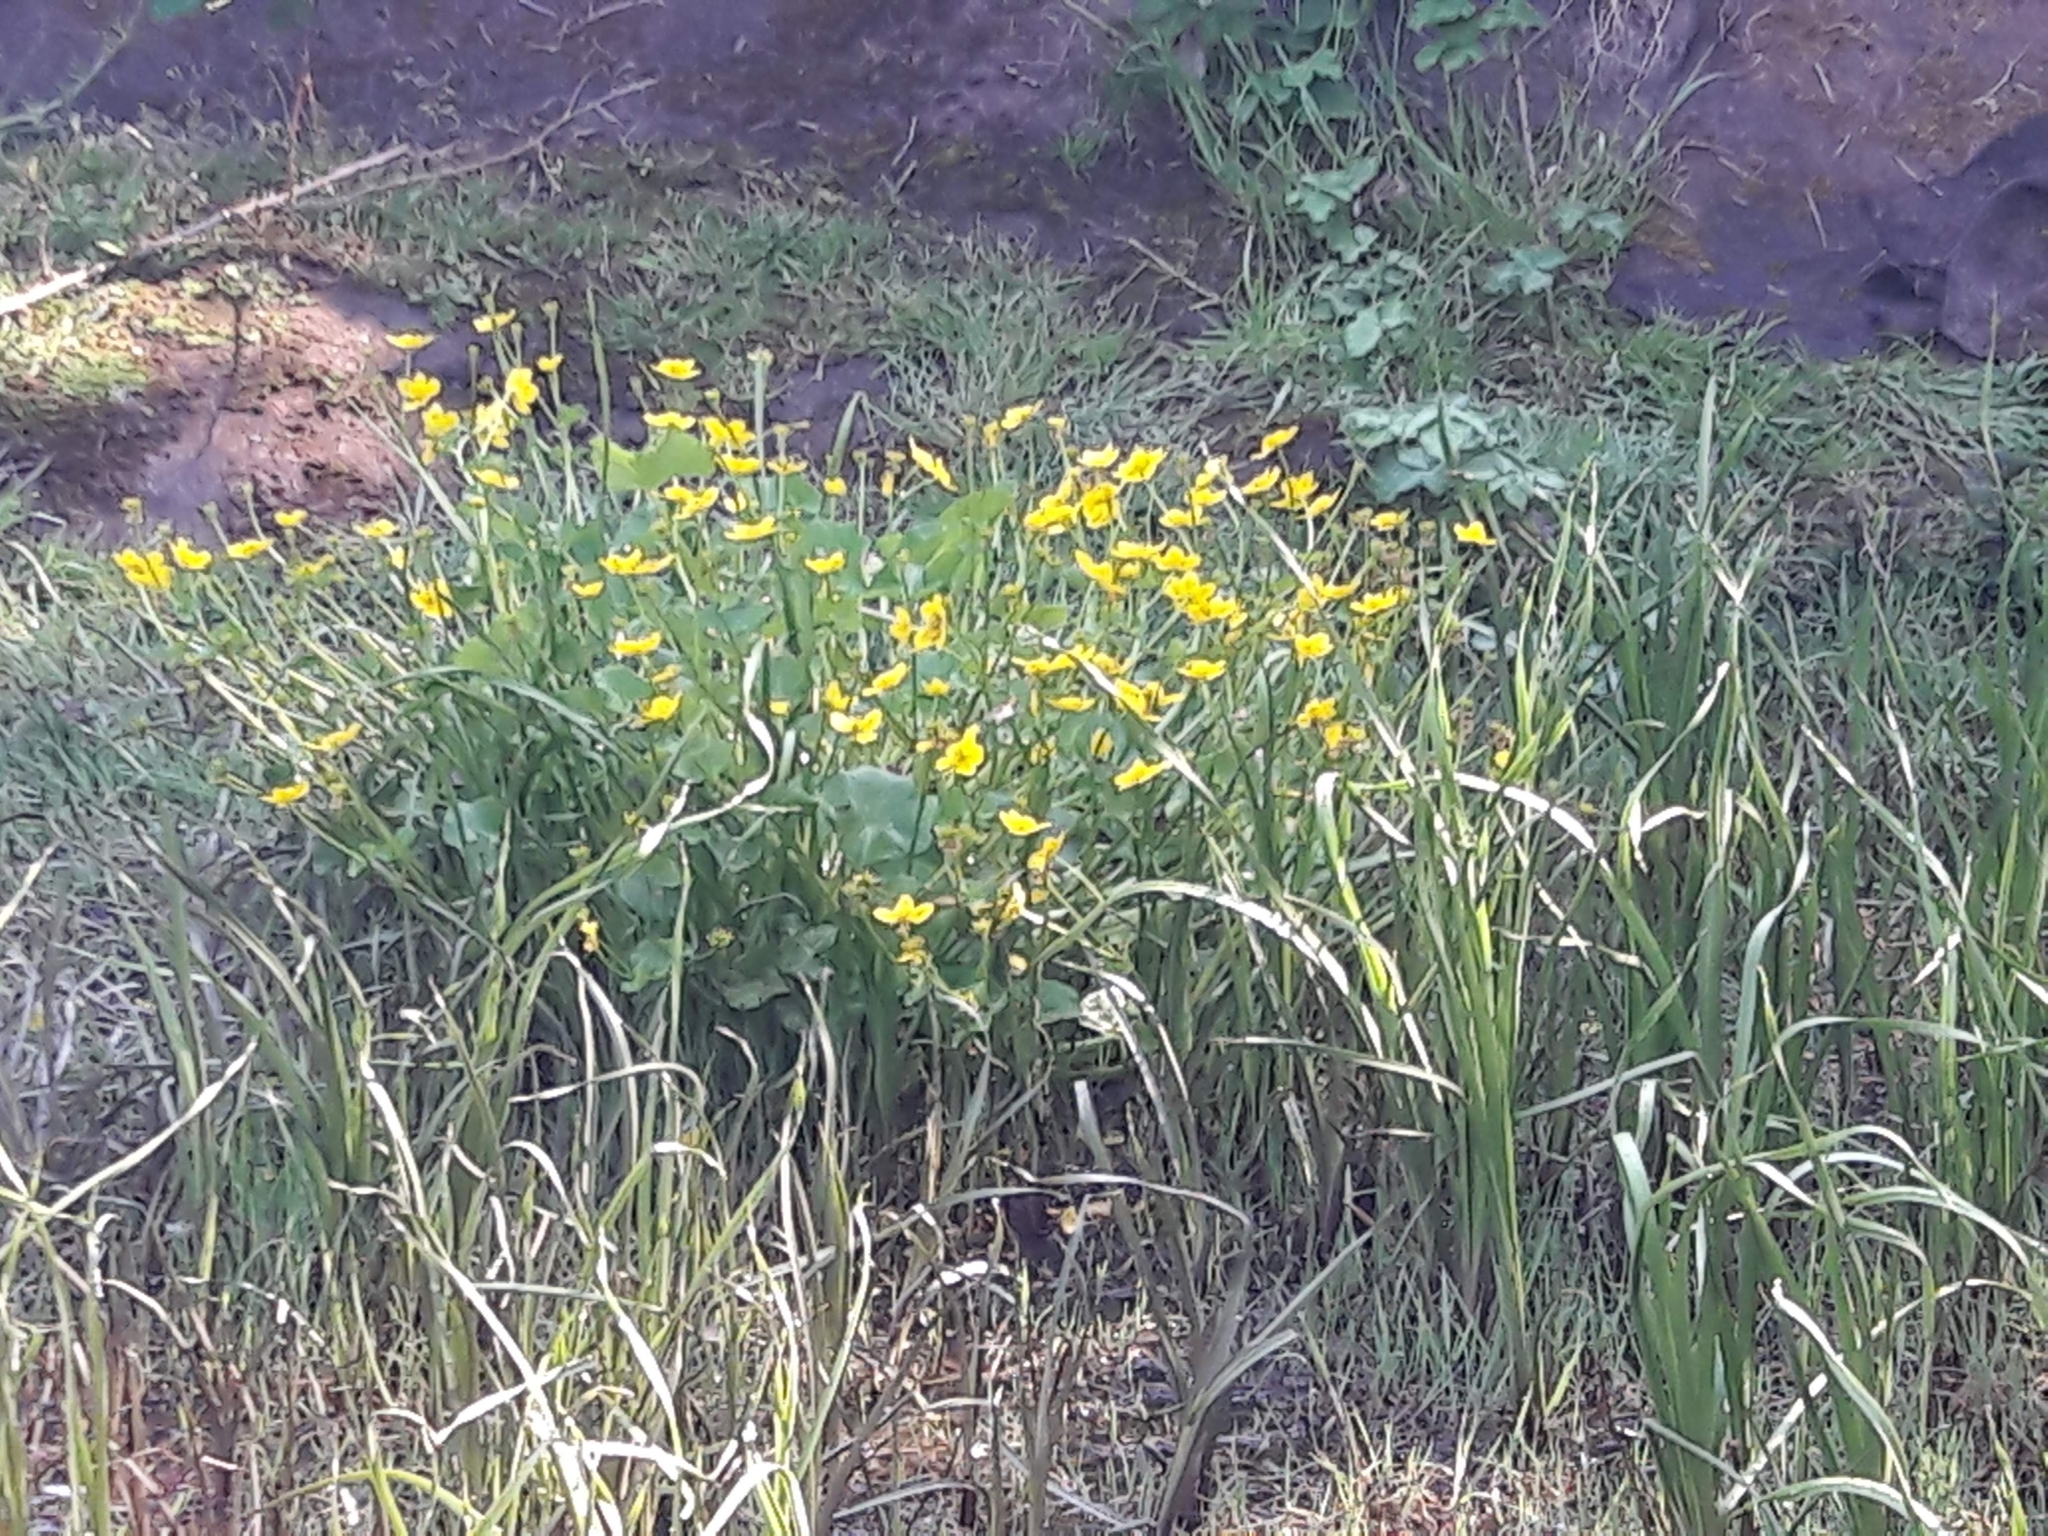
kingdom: Plantae
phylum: Tracheophyta
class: Magnoliopsida
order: Ranunculales
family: Ranunculaceae
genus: Caltha
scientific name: Caltha palustris
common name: Marsh marigold
